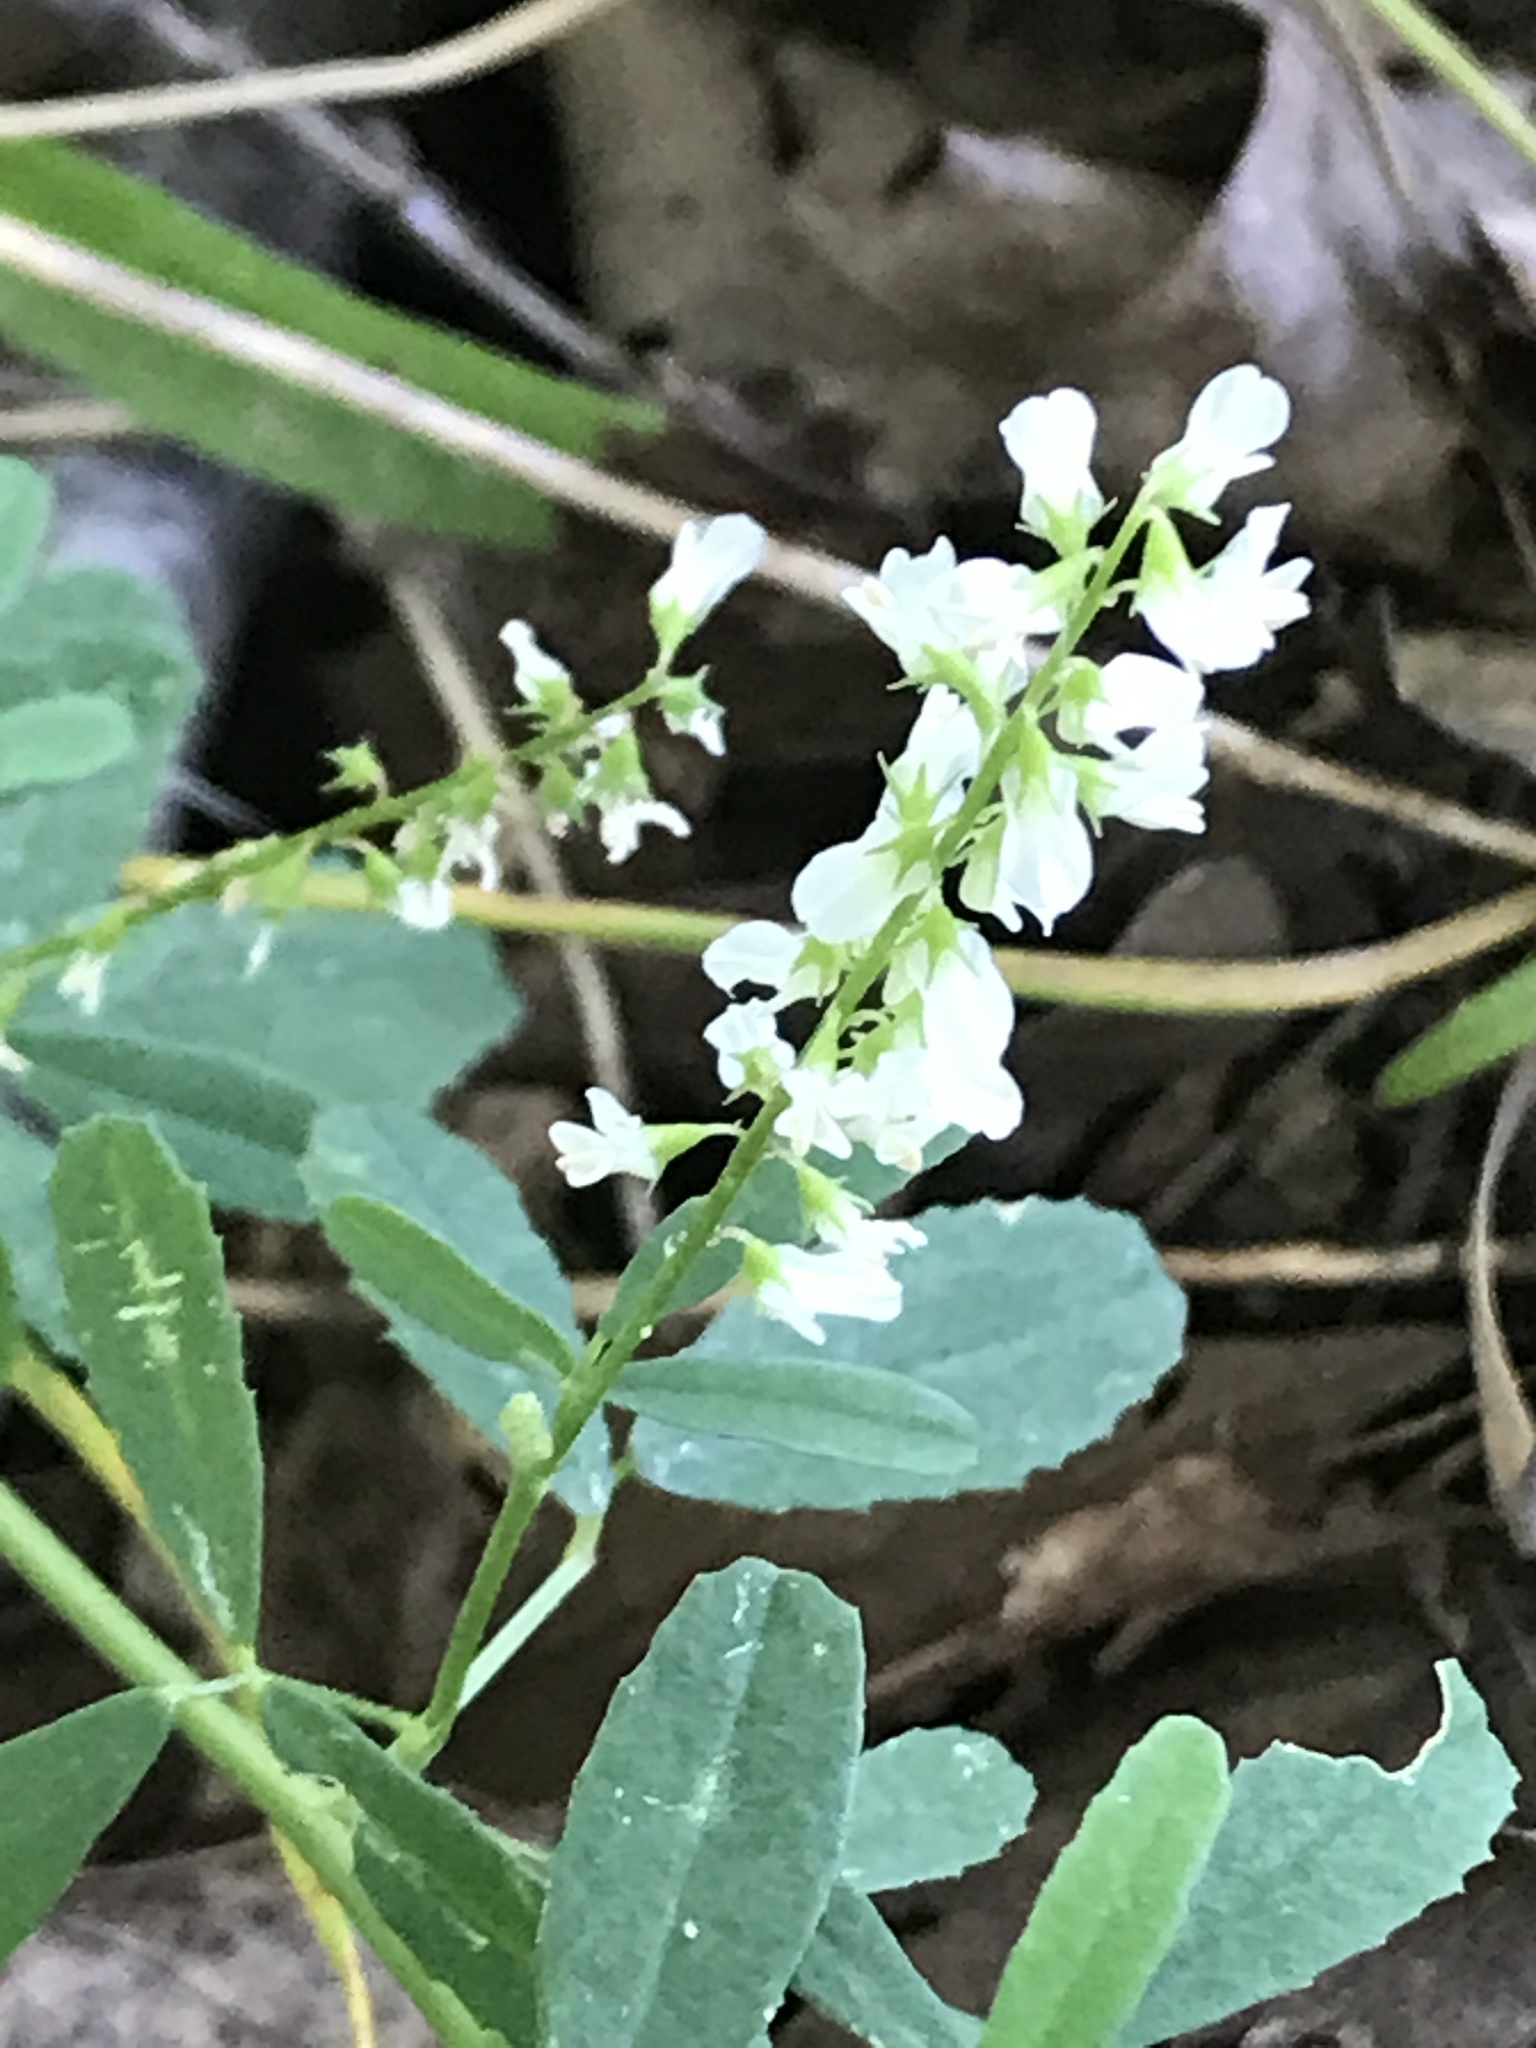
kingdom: Plantae
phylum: Tracheophyta
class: Magnoliopsida
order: Fabales
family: Fabaceae
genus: Melilotus
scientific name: Melilotus albus
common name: White melilot
